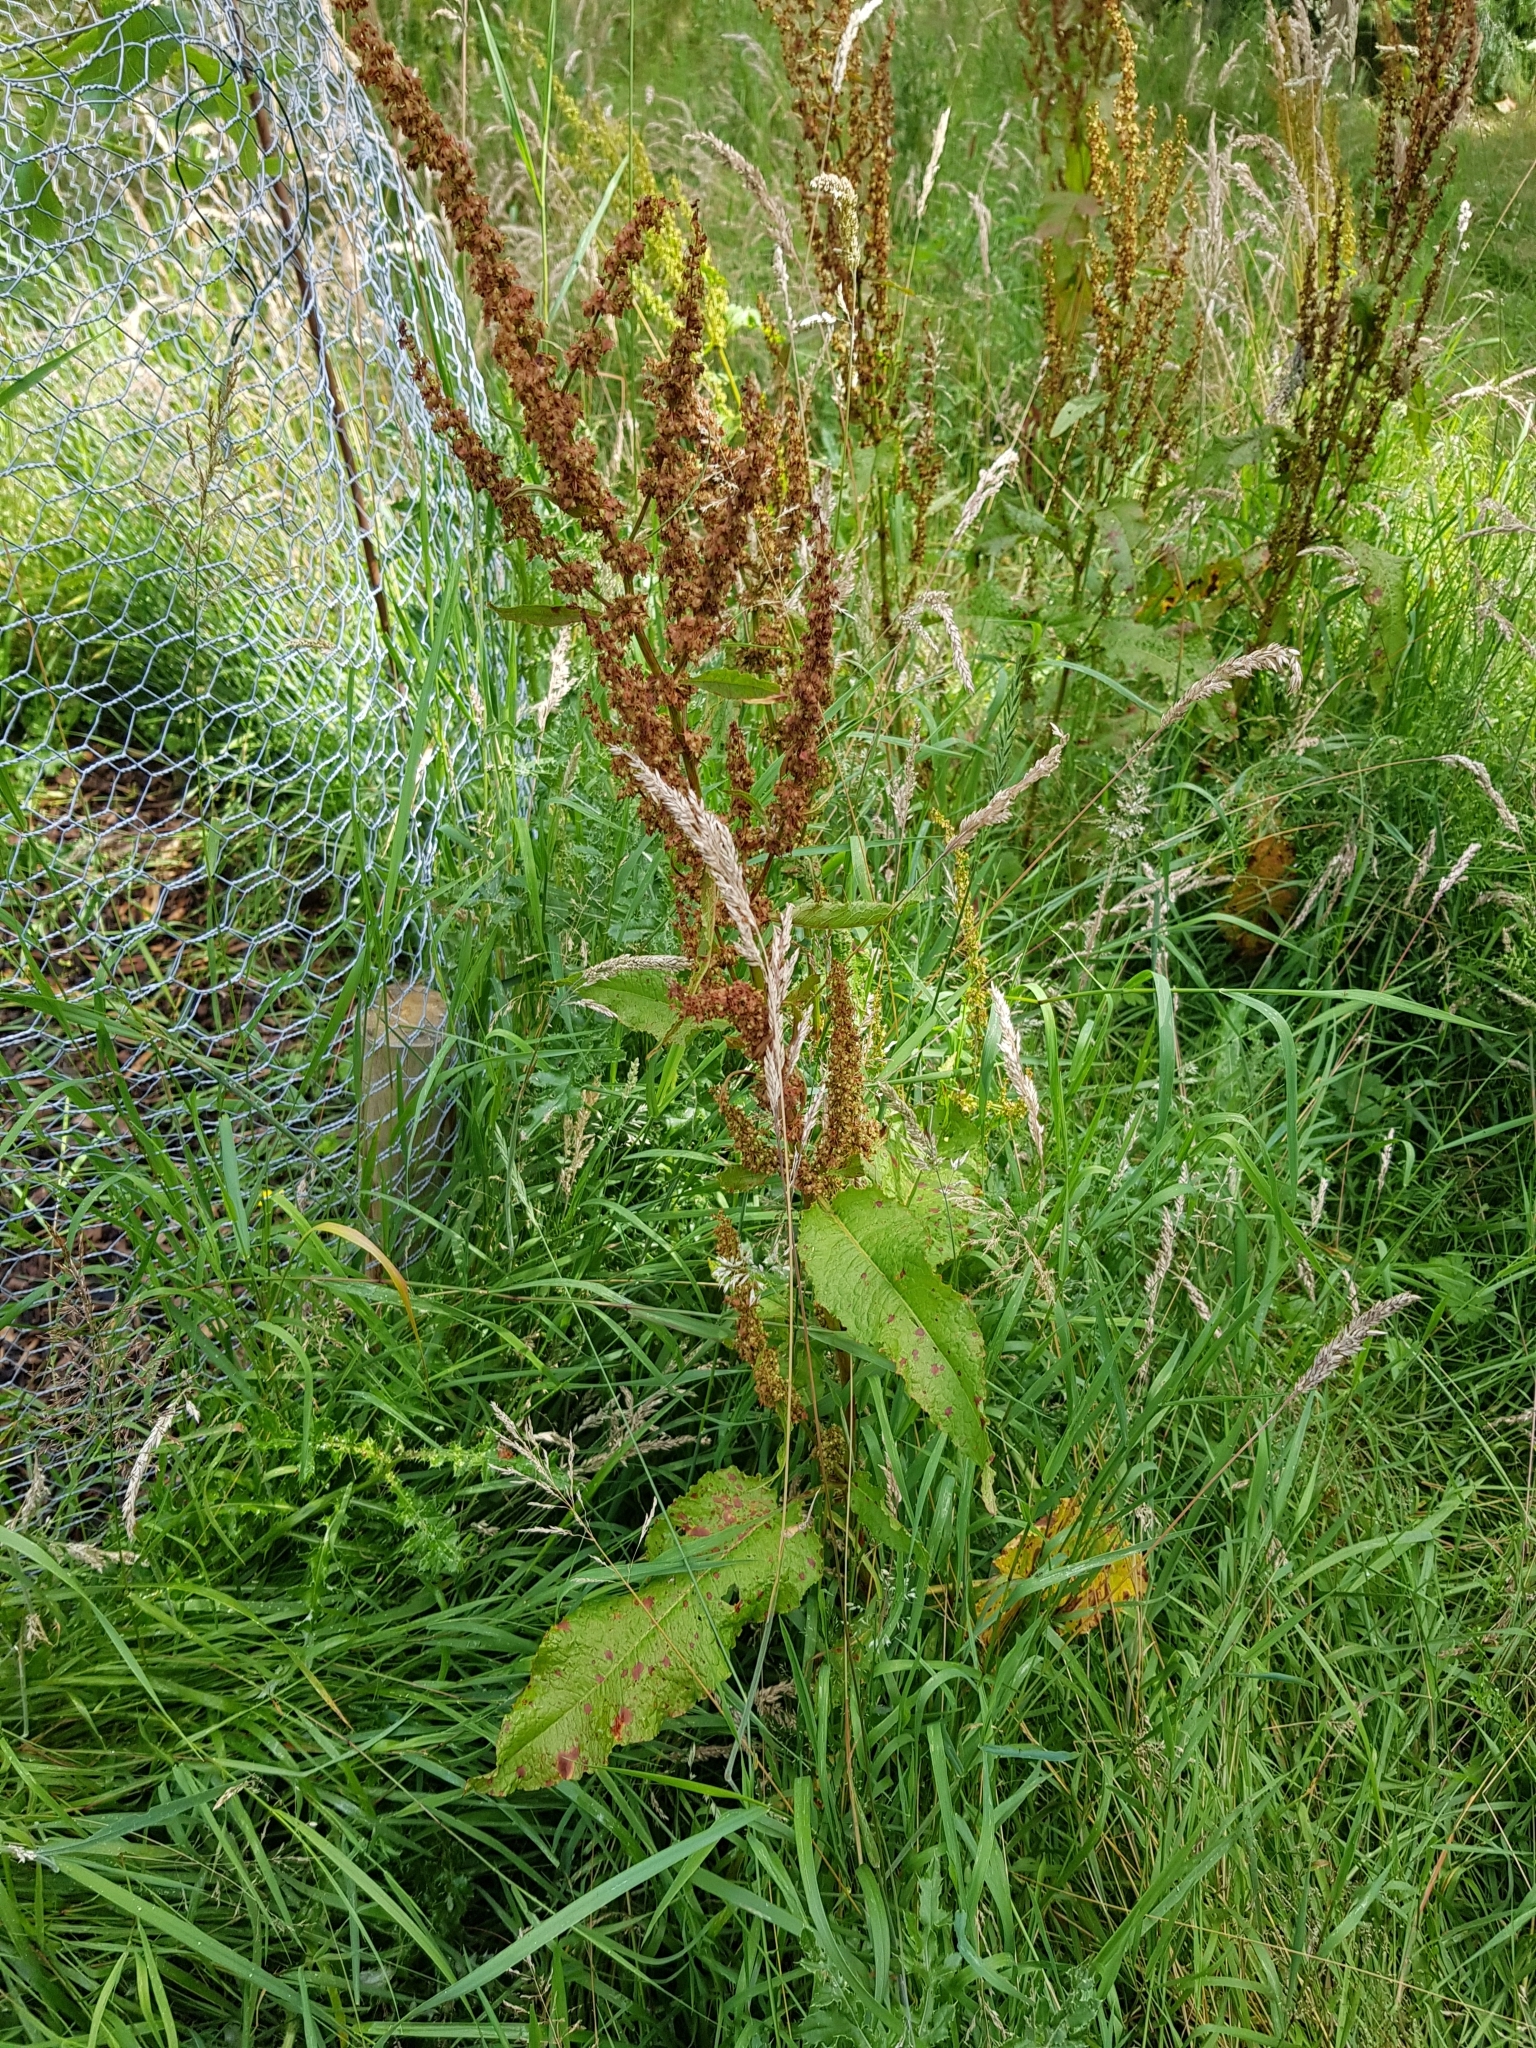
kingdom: Plantae
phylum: Tracheophyta
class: Magnoliopsida
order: Caryophyllales
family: Polygonaceae
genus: Rumex
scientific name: Rumex obtusifolius
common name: Bitter dock
